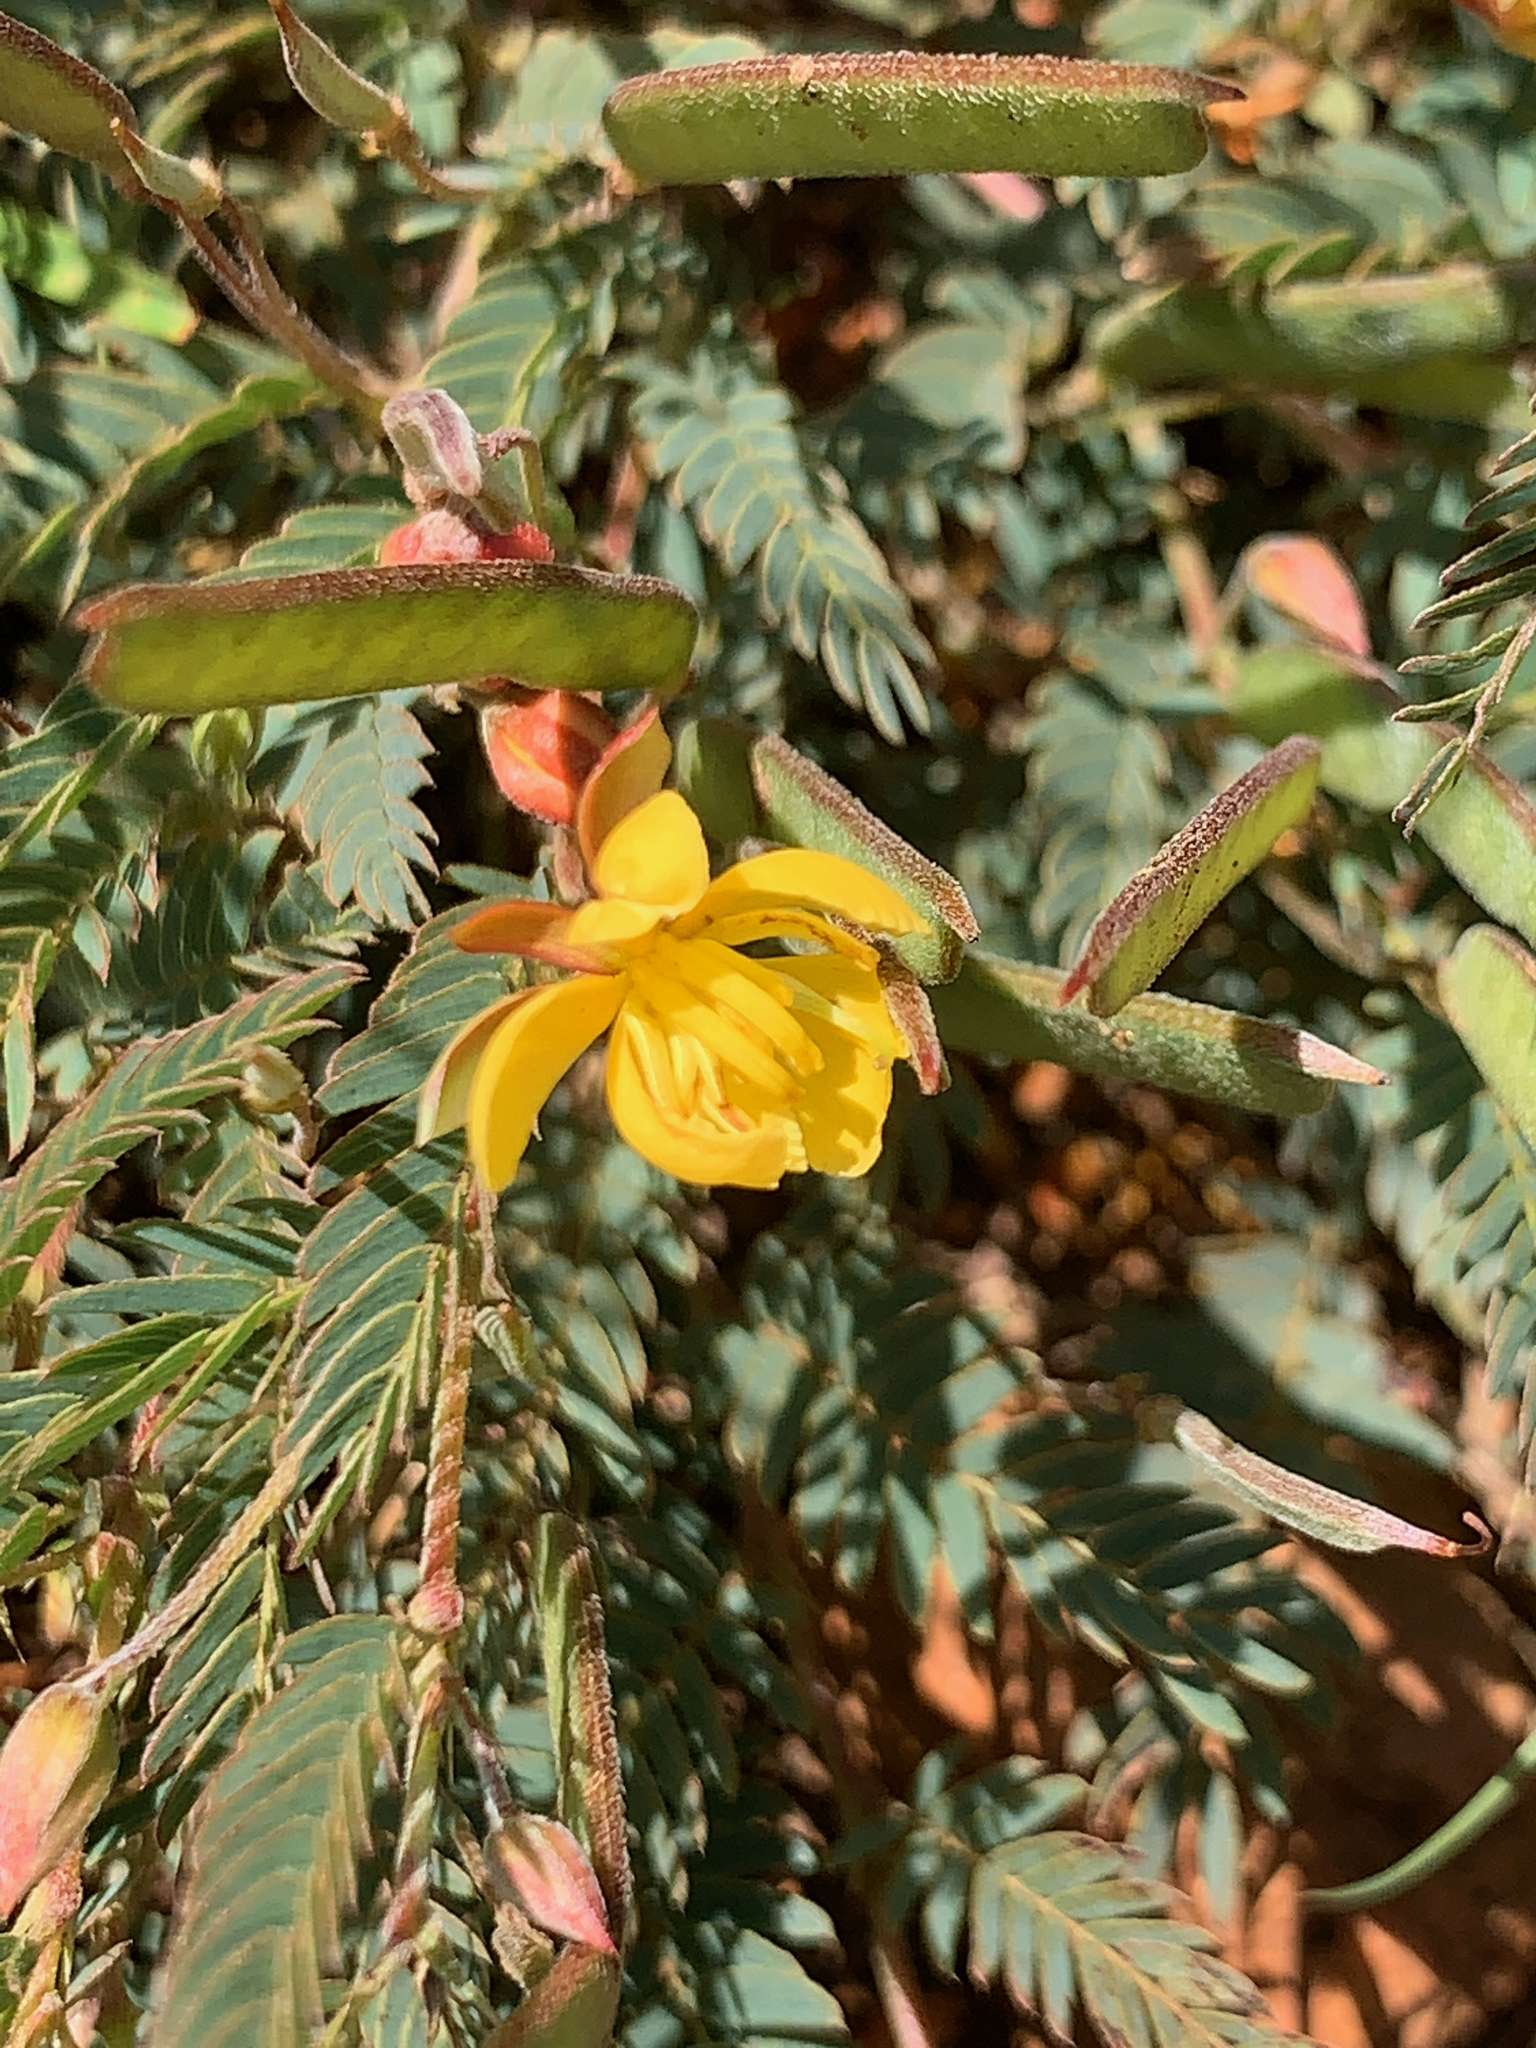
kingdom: Plantae
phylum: Tracheophyta
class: Magnoliopsida
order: Fabales
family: Fabaceae
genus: Chamaecrista
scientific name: Chamaecrista comosa
